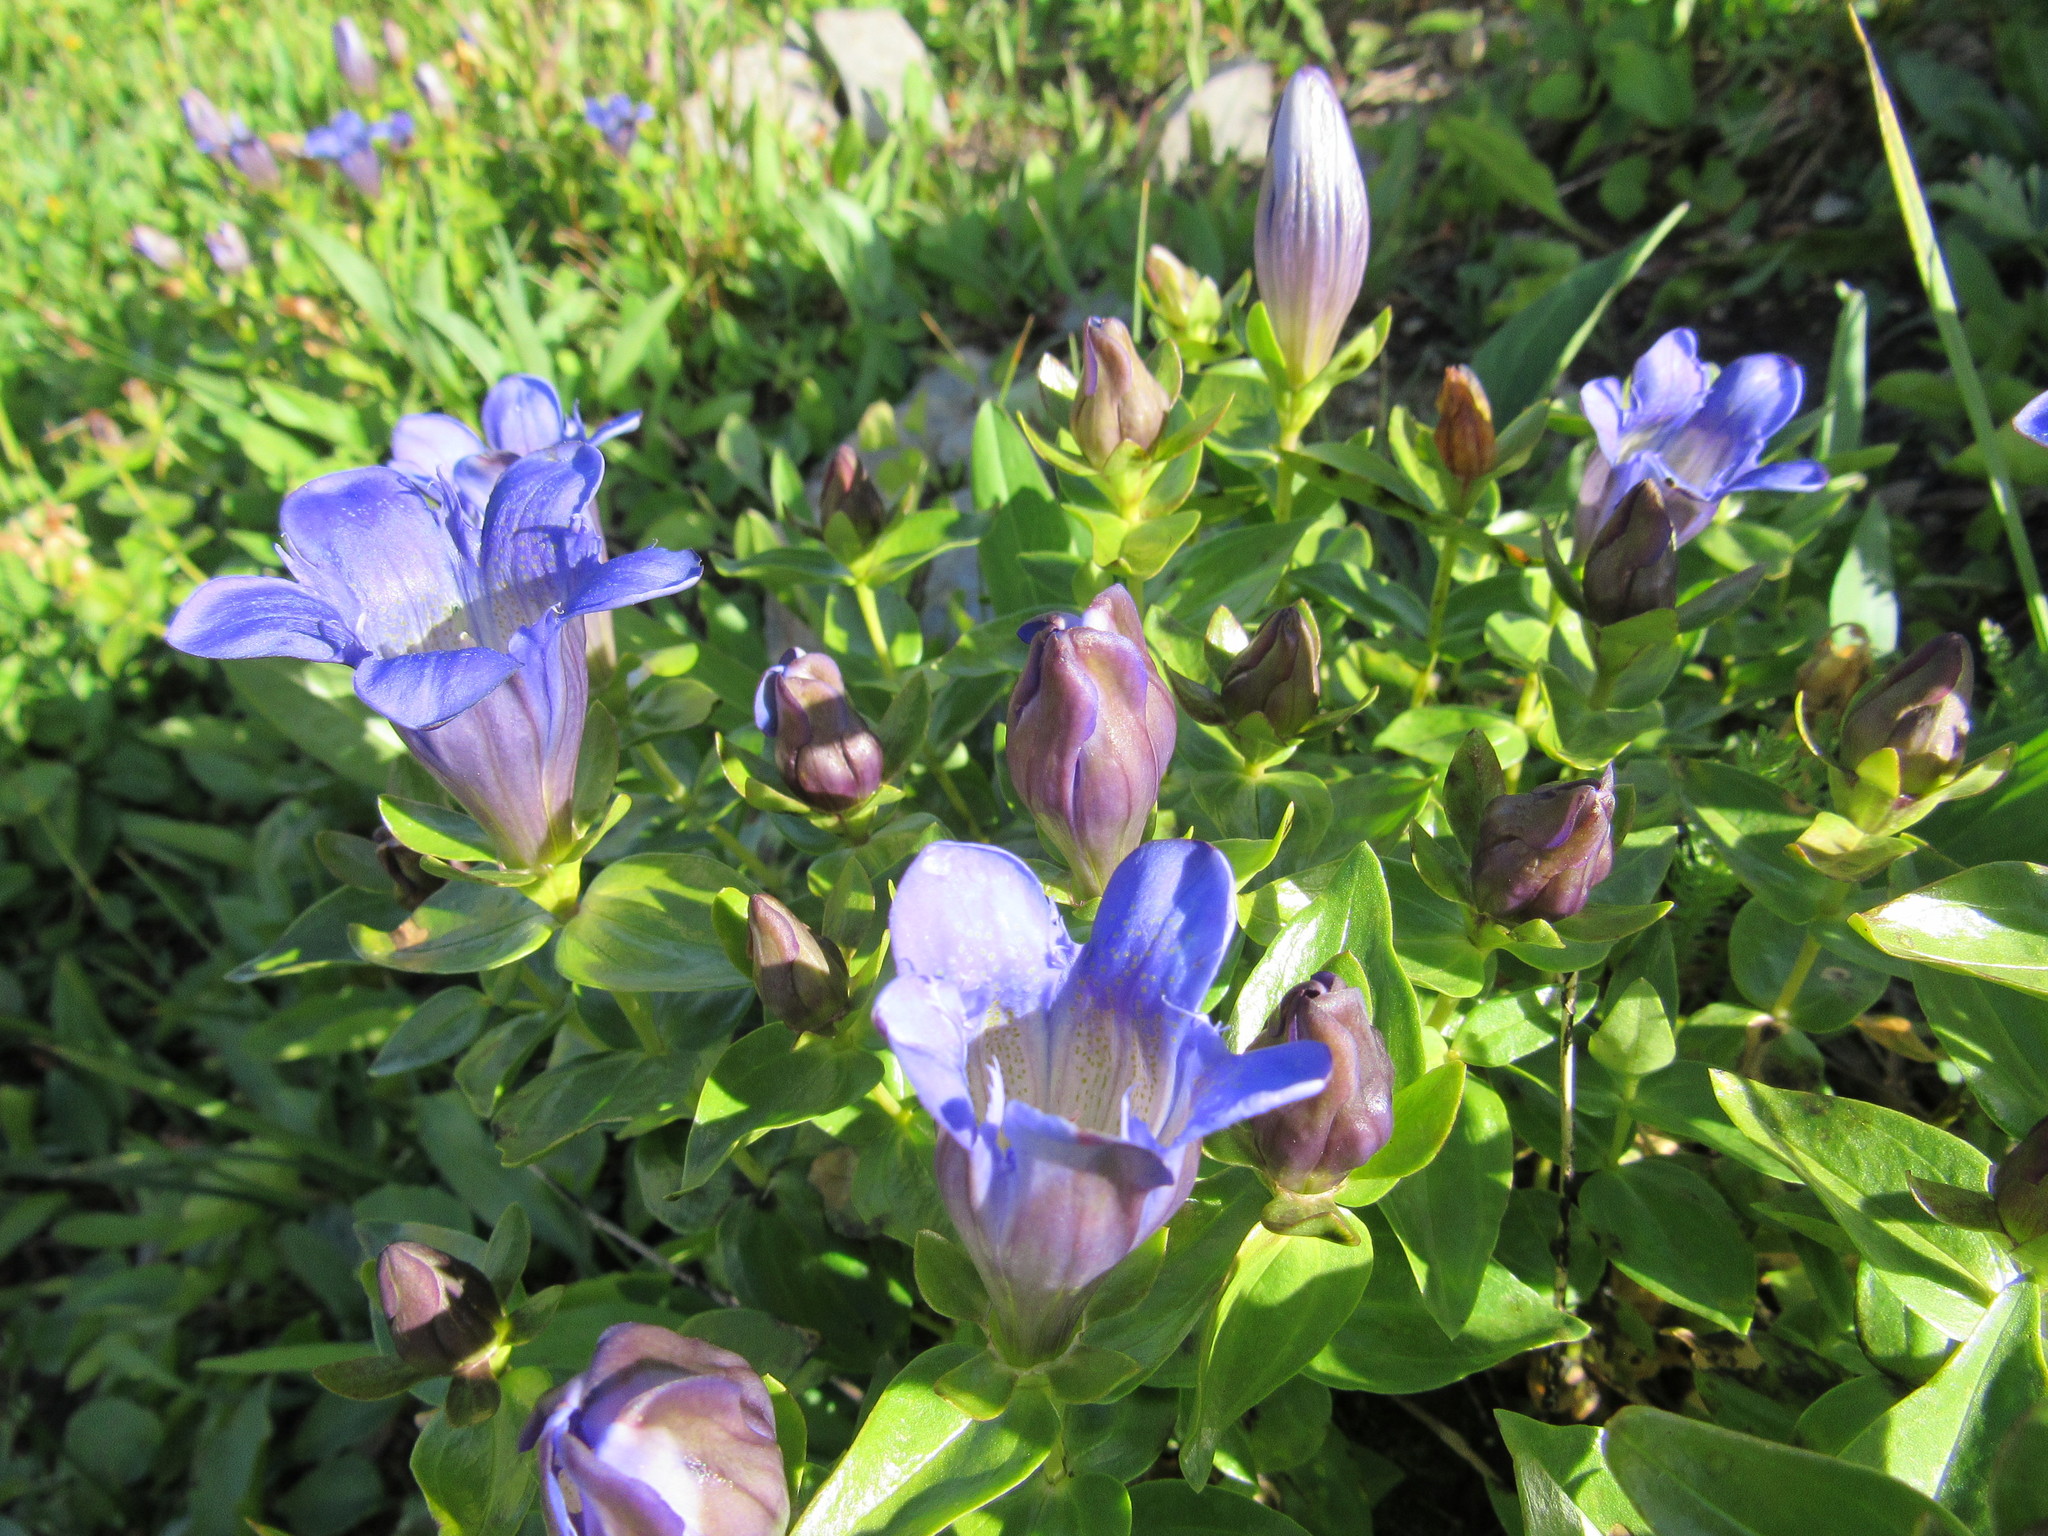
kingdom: Plantae
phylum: Tracheophyta
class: Magnoliopsida
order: Gentianales
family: Gentianaceae
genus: Gentiana
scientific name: Gentiana calycosa
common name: Rainier pleated gentian
